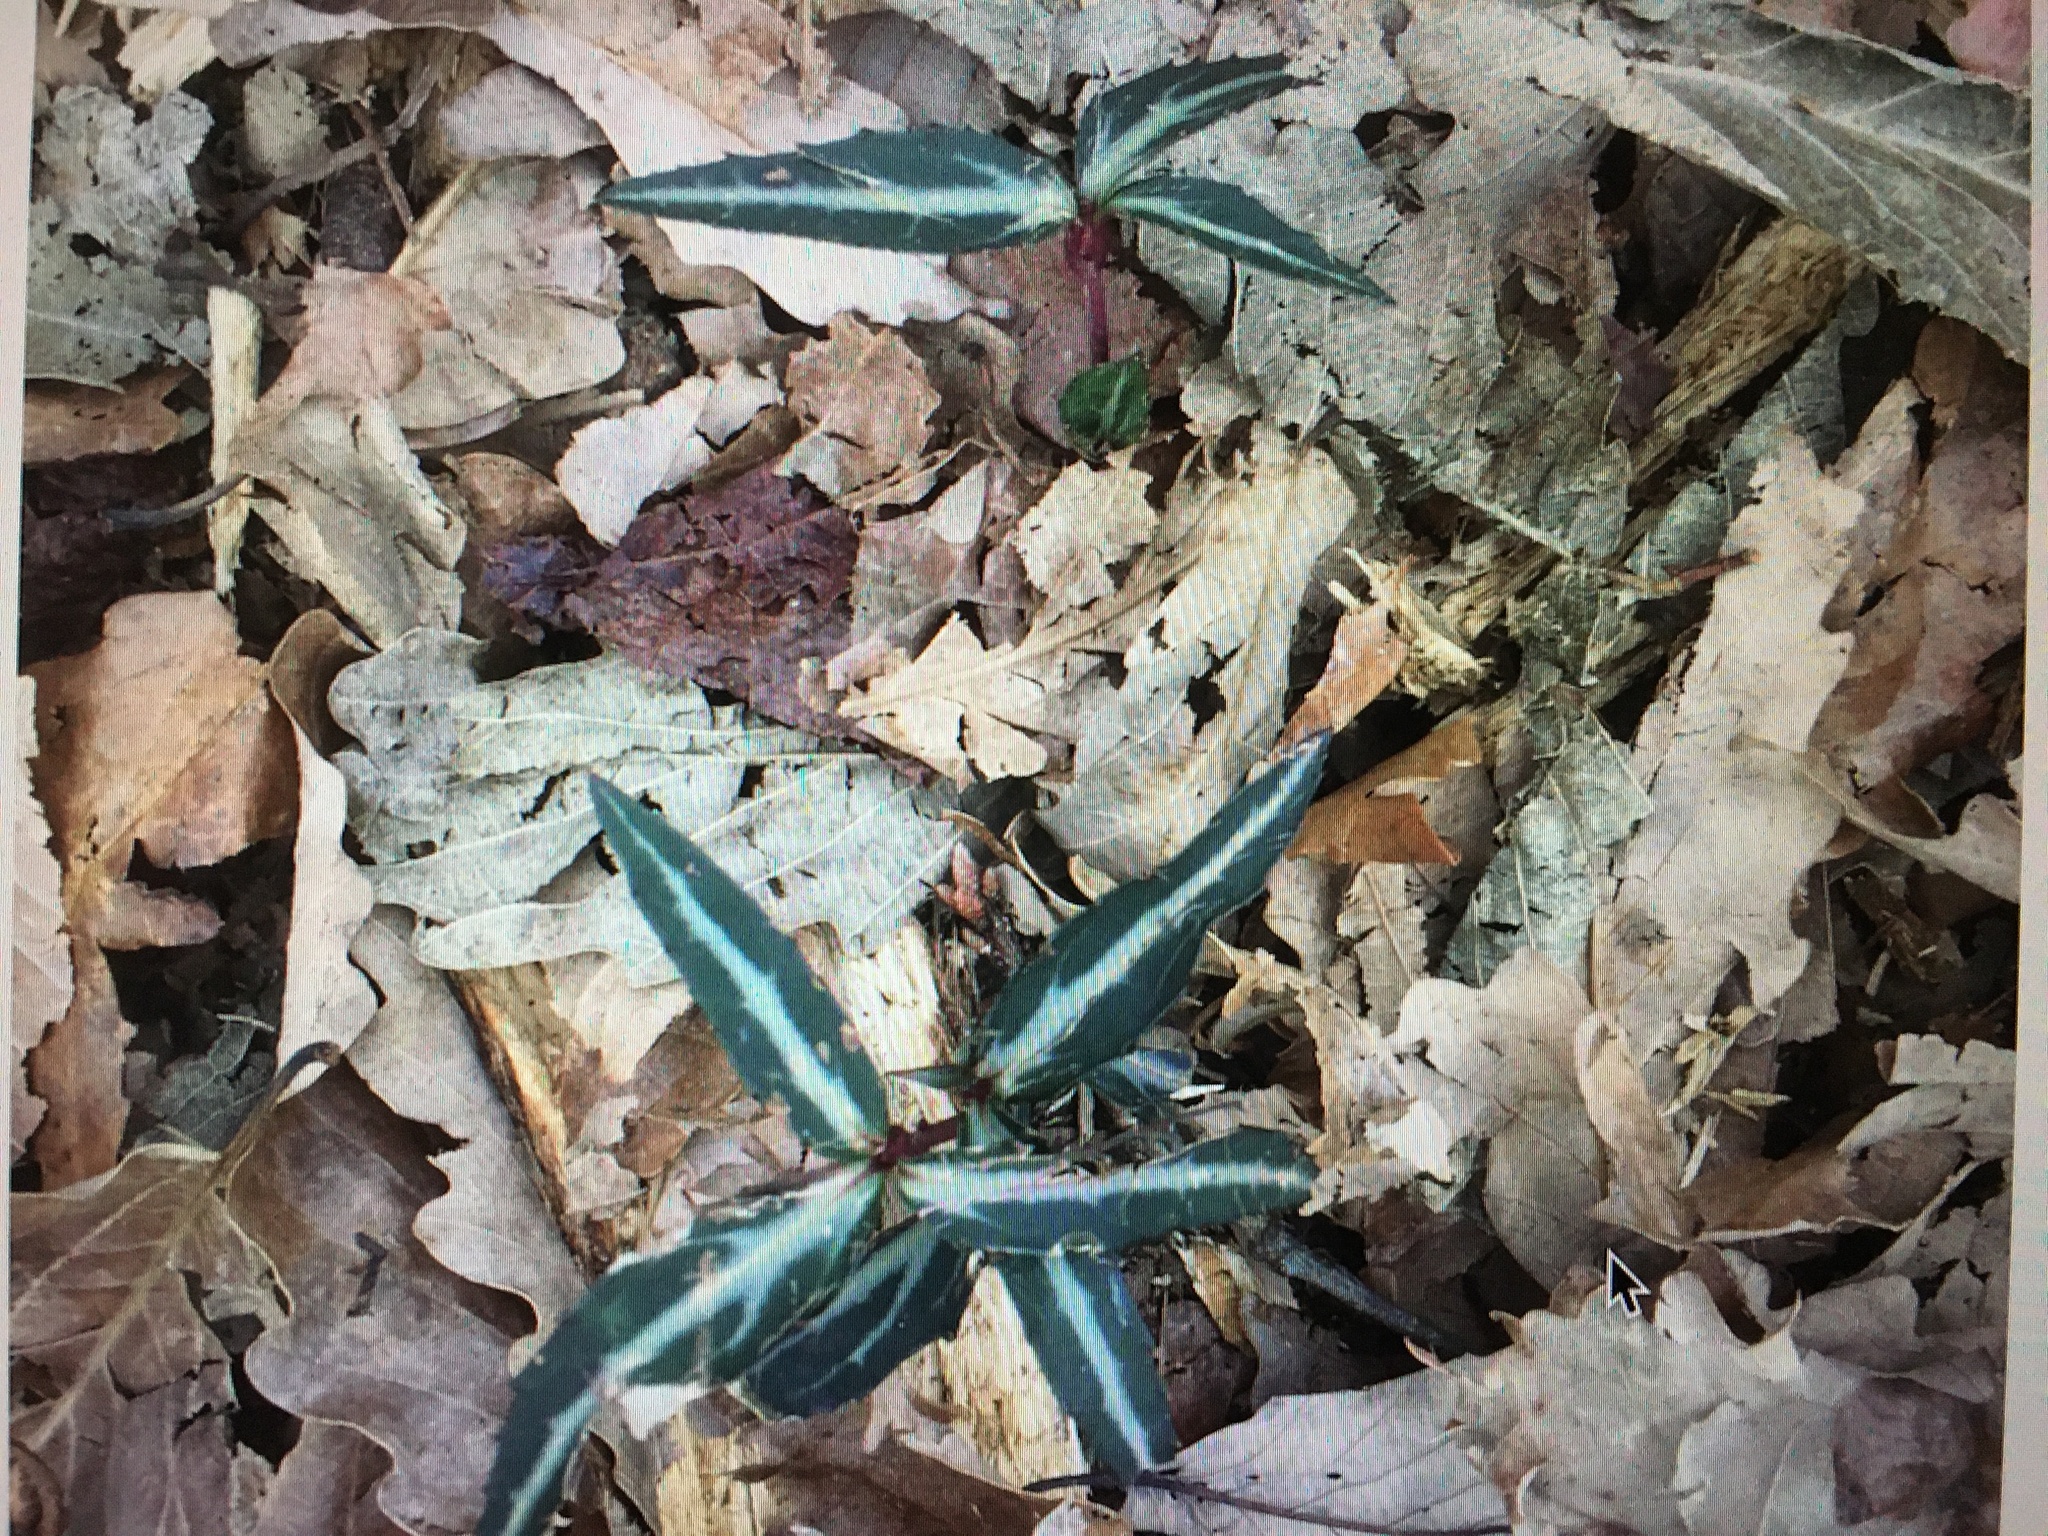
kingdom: Plantae
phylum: Tracheophyta
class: Magnoliopsida
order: Ericales
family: Ericaceae
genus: Chimaphila
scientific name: Chimaphila maculata
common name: Spotted pipsissewa
